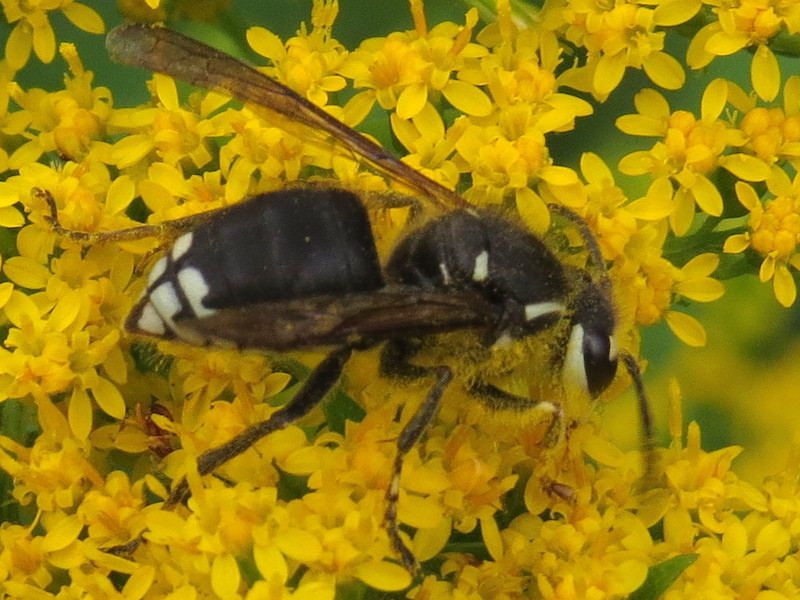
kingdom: Animalia
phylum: Arthropoda
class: Insecta
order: Hymenoptera
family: Vespidae
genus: Dolichovespula
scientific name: Dolichovespula maculata
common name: Bald-faced hornet
